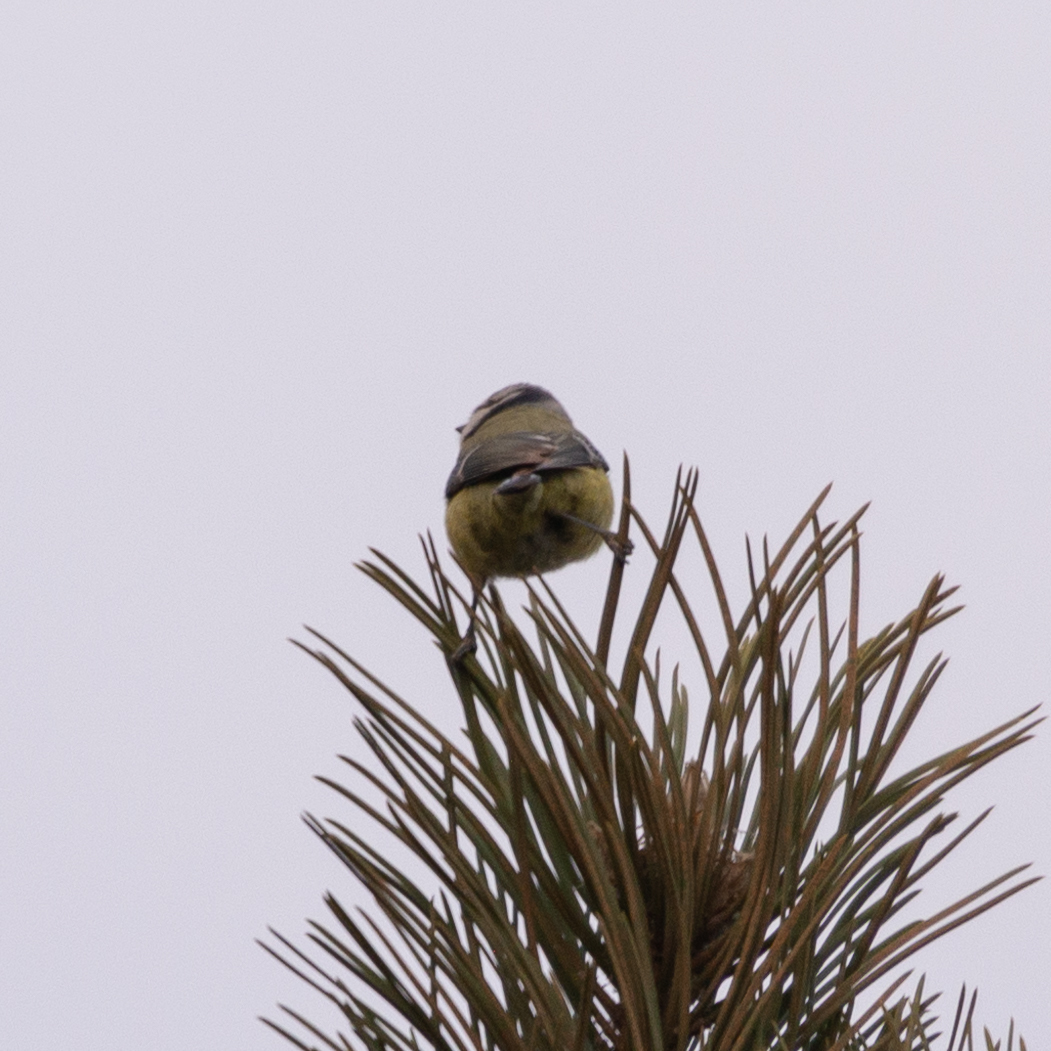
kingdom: Animalia
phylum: Chordata
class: Aves
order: Passeriformes
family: Paridae
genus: Cyanistes
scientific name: Cyanistes caeruleus
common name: Eurasian blue tit
